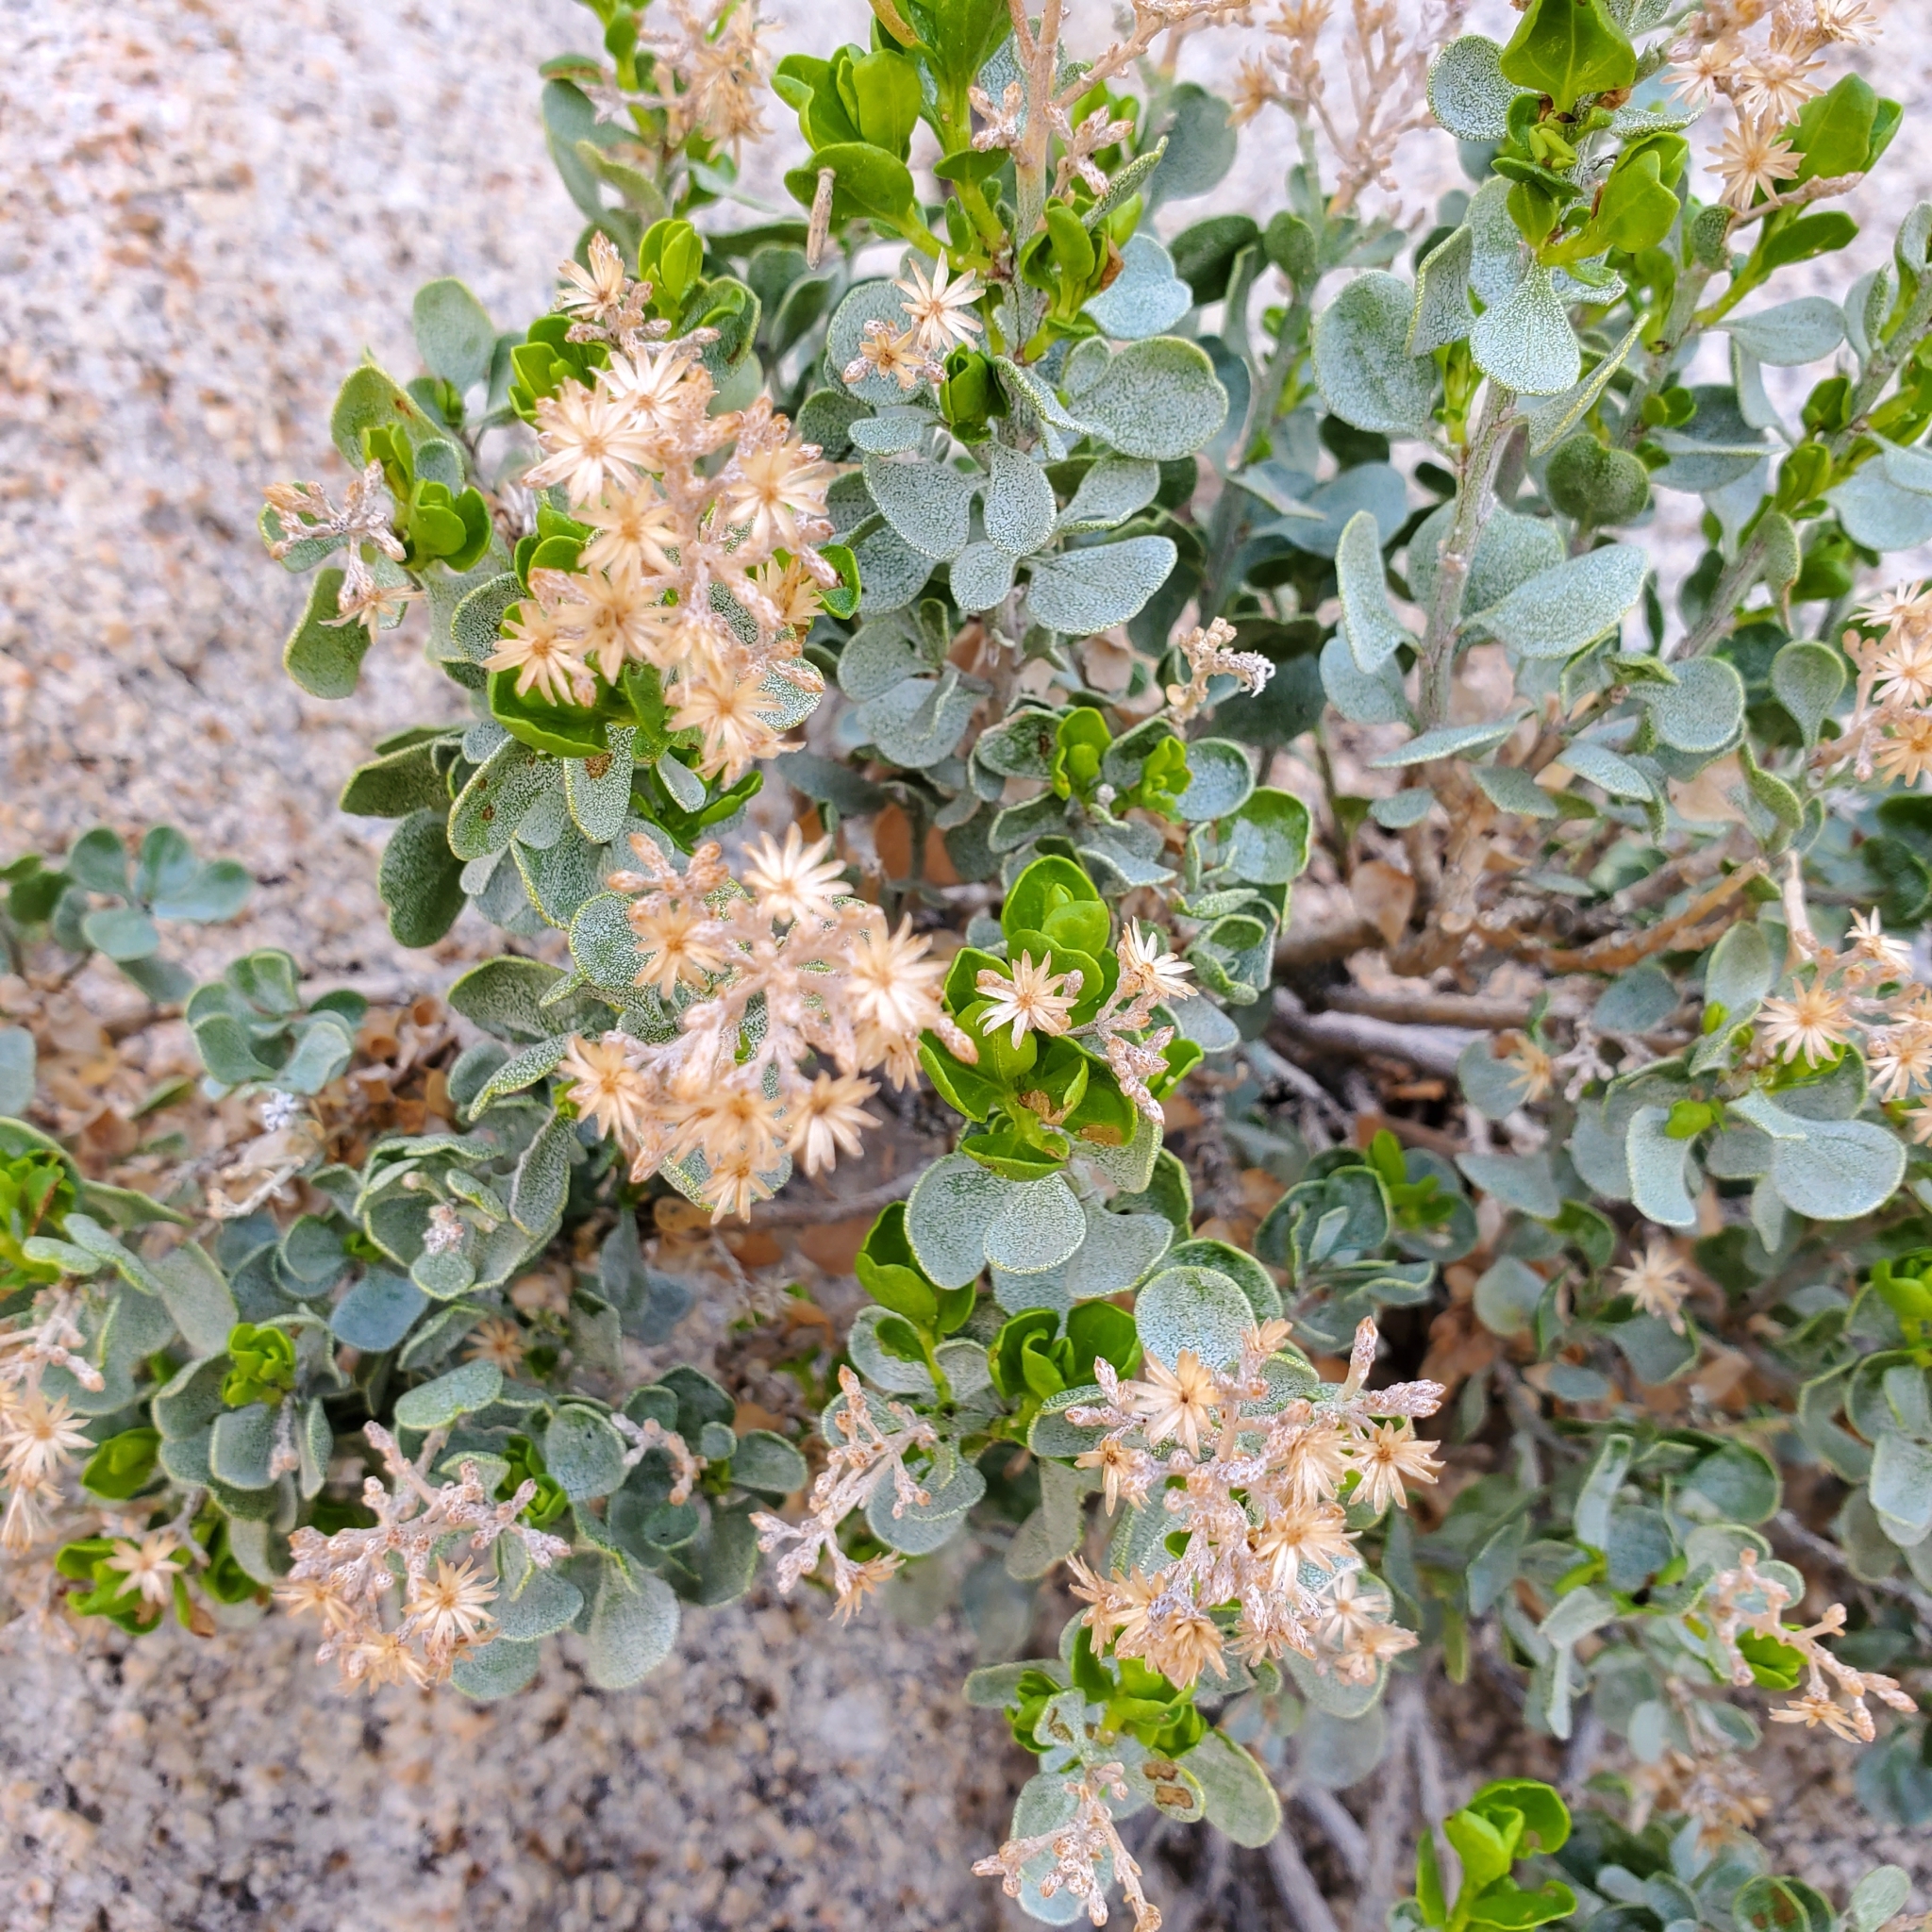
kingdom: Plantae
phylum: Tracheophyta
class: Magnoliopsida
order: Asterales
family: Asteraceae
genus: Ericameria
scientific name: Ericameria cuneata
